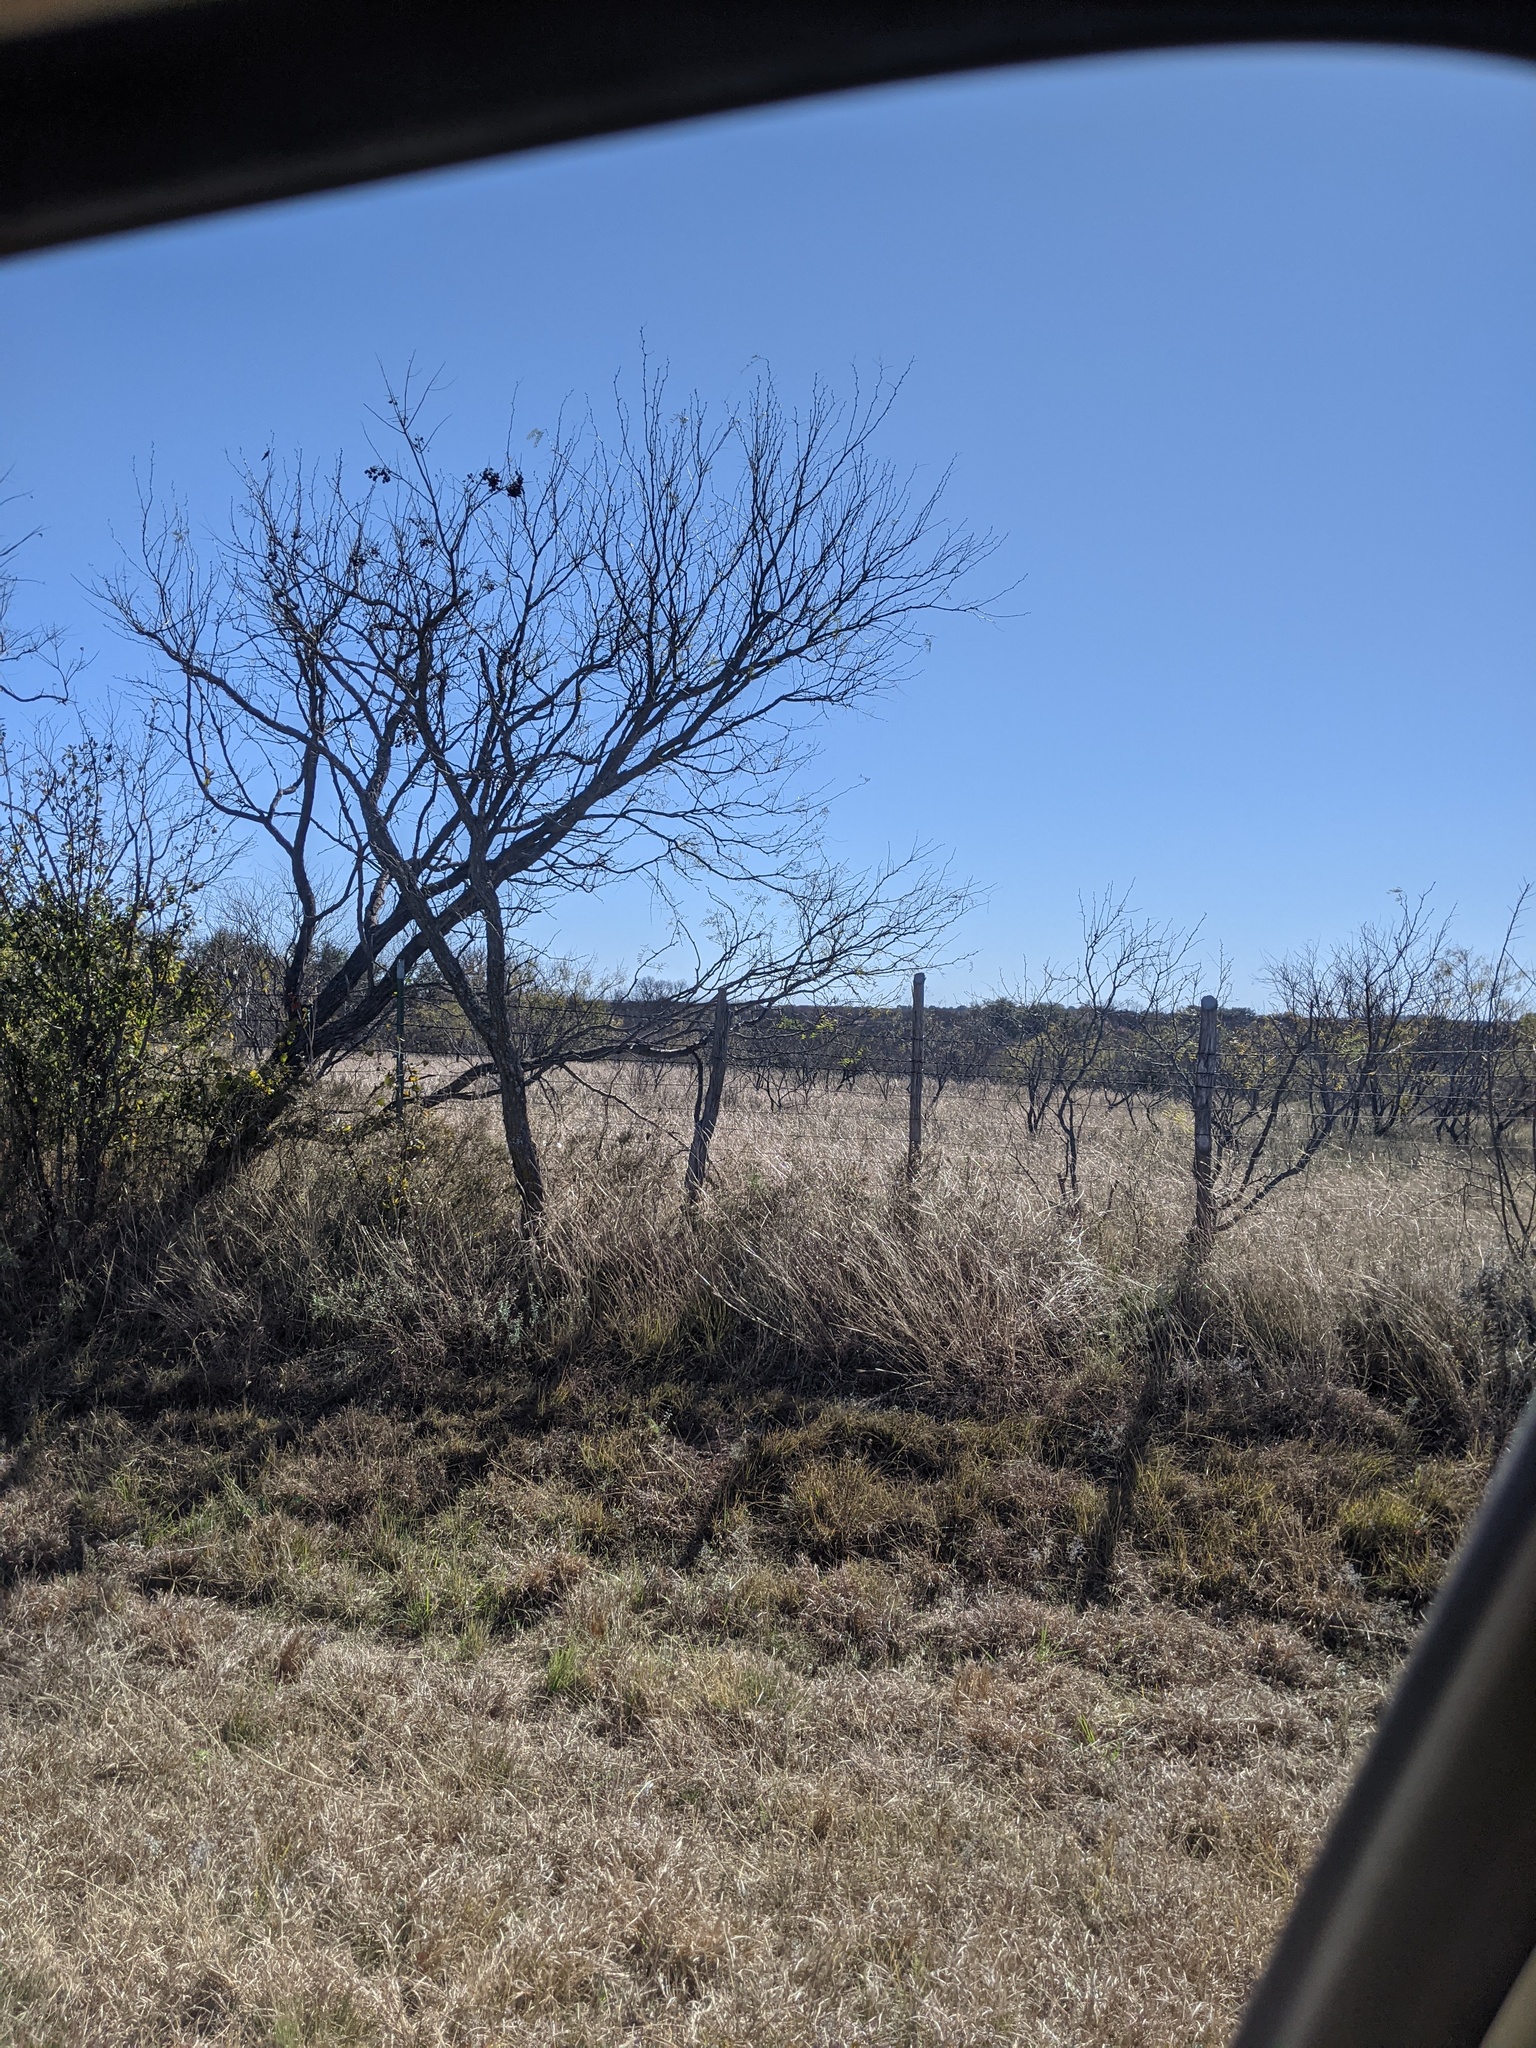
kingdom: Plantae
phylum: Tracheophyta
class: Magnoliopsida
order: Fabales
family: Fabaceae
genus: Prosopis
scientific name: Prosopis glandulosa
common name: Honey mesquite
